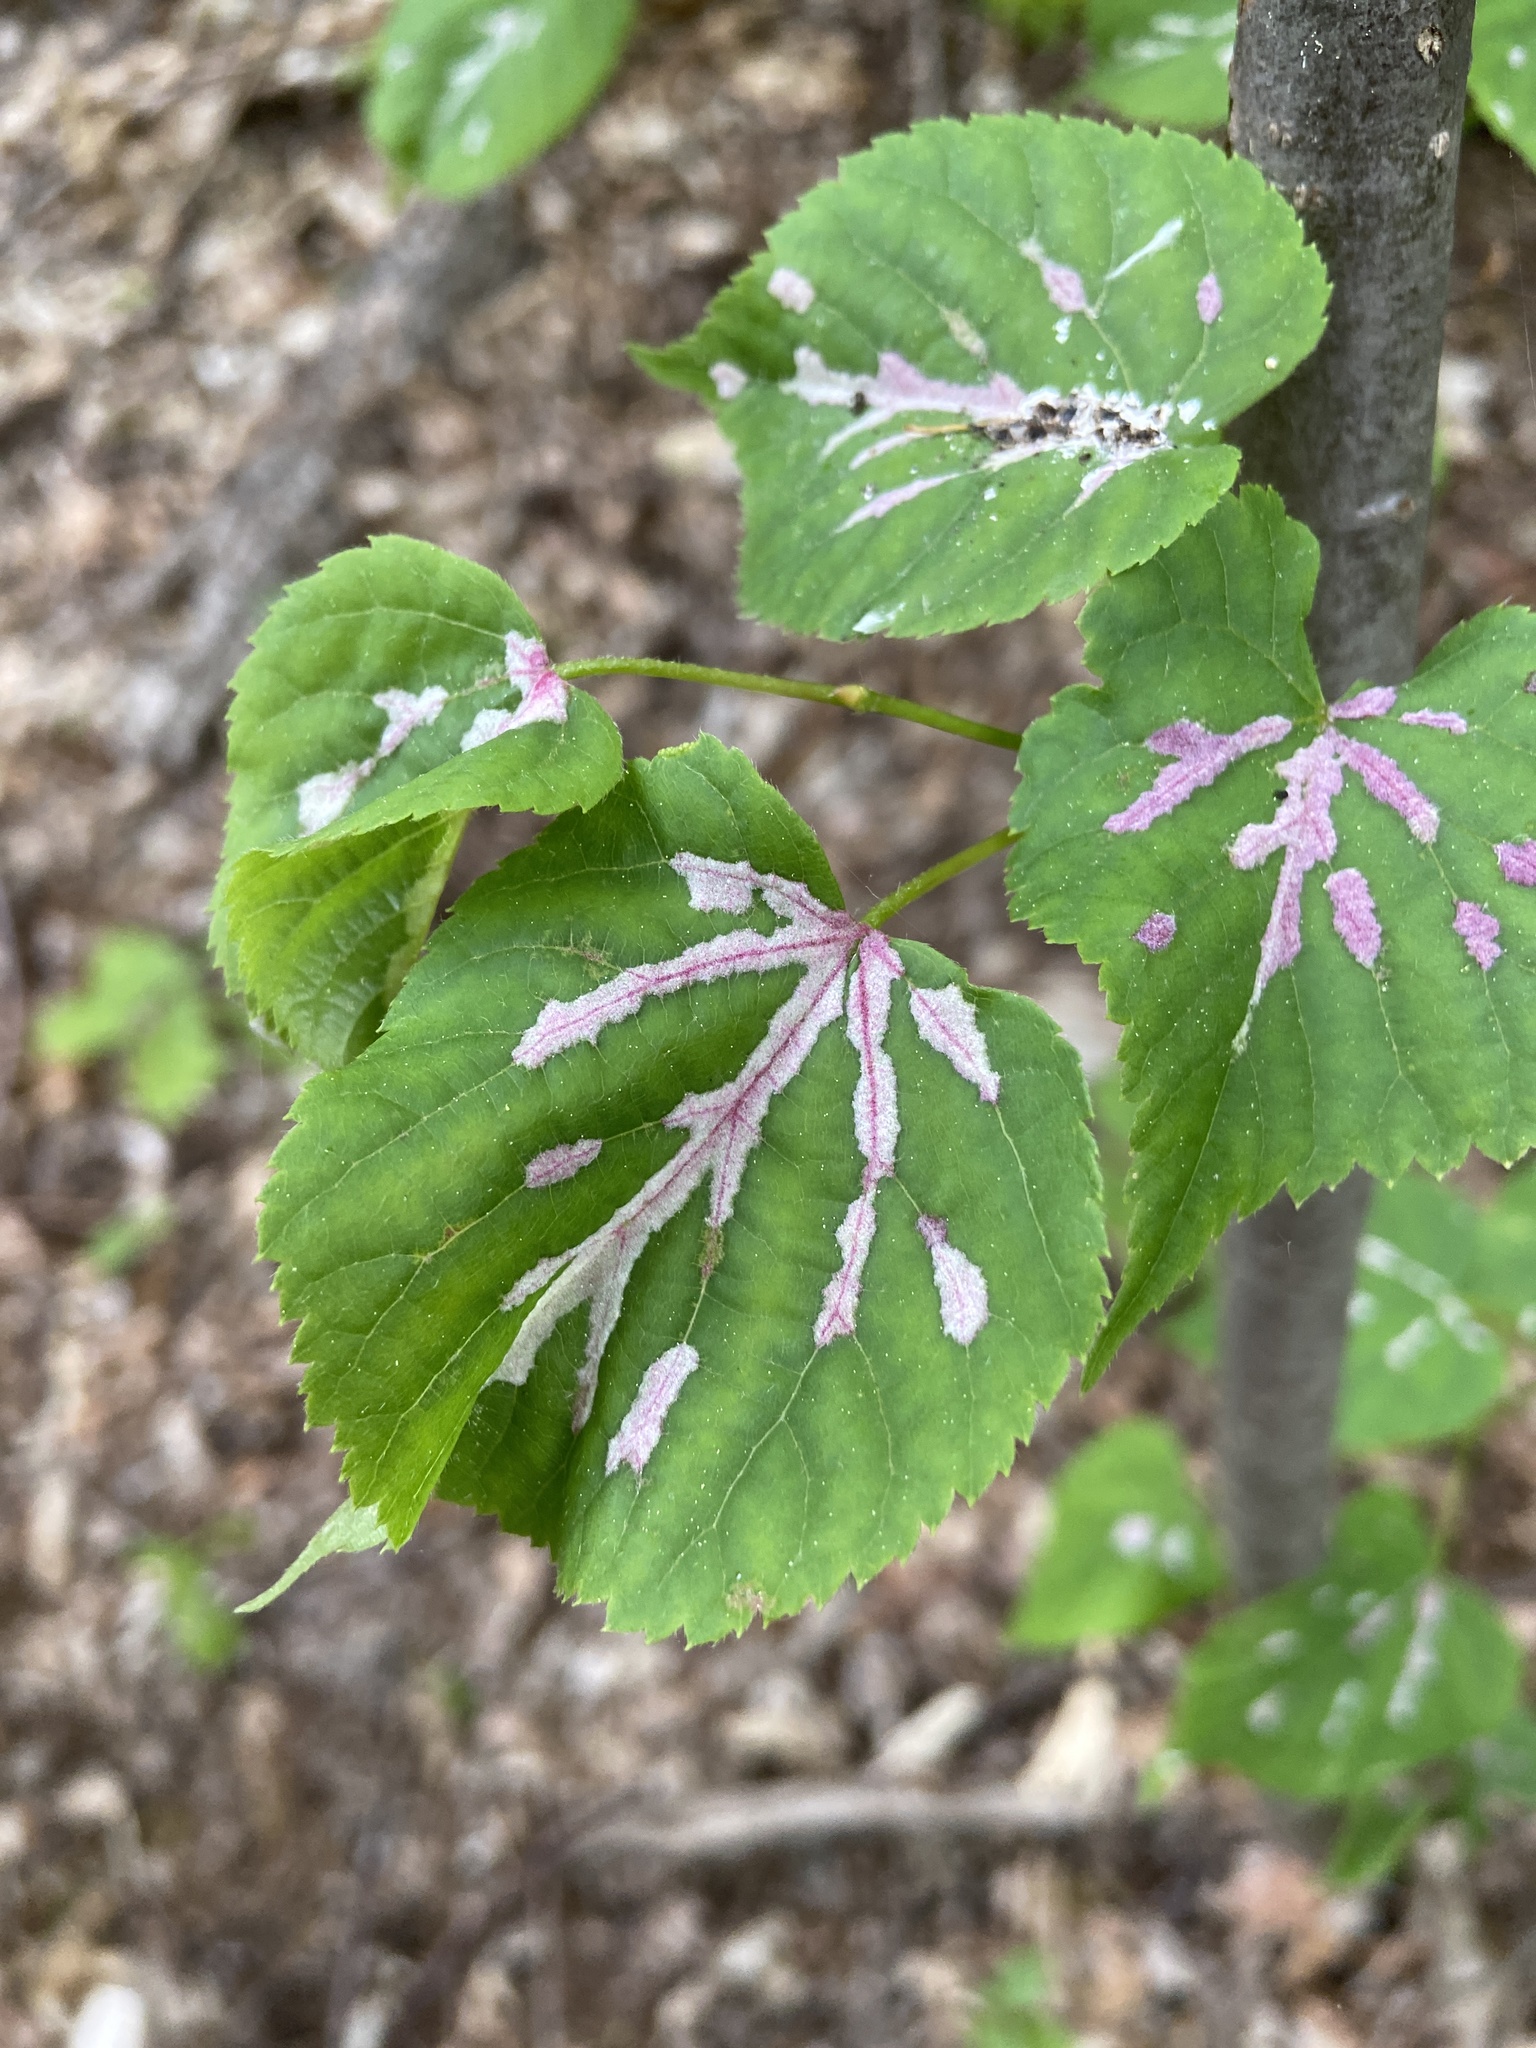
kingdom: Animalia
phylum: Arthropoda
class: Arachnida
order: Trombidiformes
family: Eriophyidae
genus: Eriophyes
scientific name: Eriophyes leiosoma
